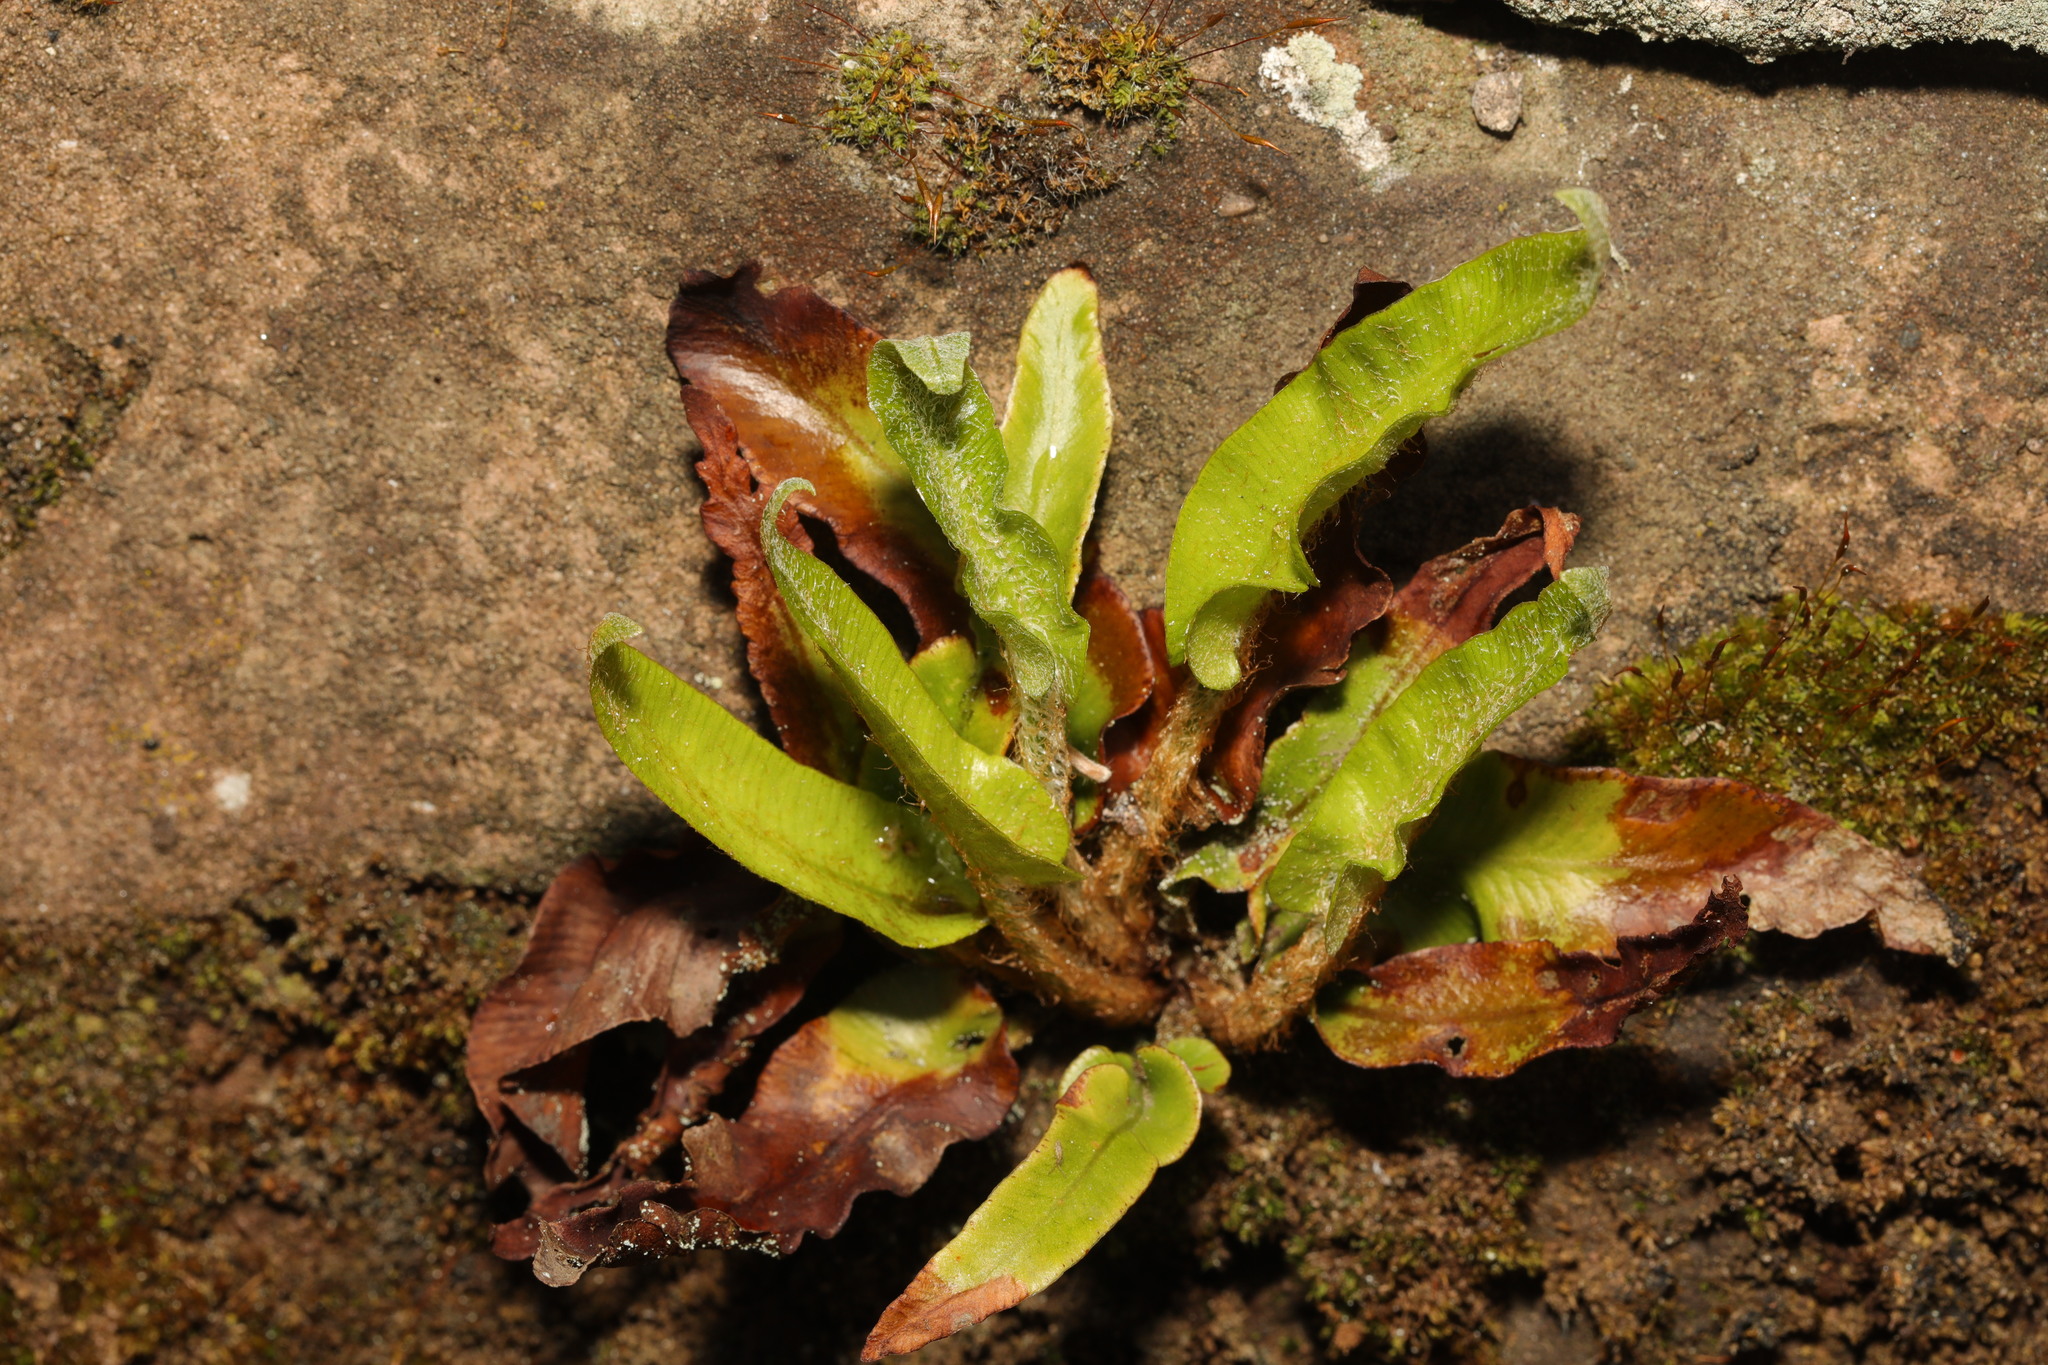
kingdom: Plantae
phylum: Tracheophyta
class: Polypodiopsida
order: Polypodiales
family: Aspleniaceae
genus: Asplenium
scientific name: Asplenium scolopendrium
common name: Hart's-tongue fern
